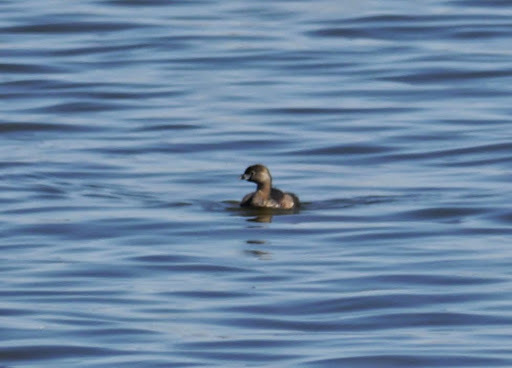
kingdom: Animalia
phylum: Chordata
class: Aves
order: Podicipediformes
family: Podicipedidae
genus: Podilymbus
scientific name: Podilymbus podiceps
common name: Pied-billed grebe
